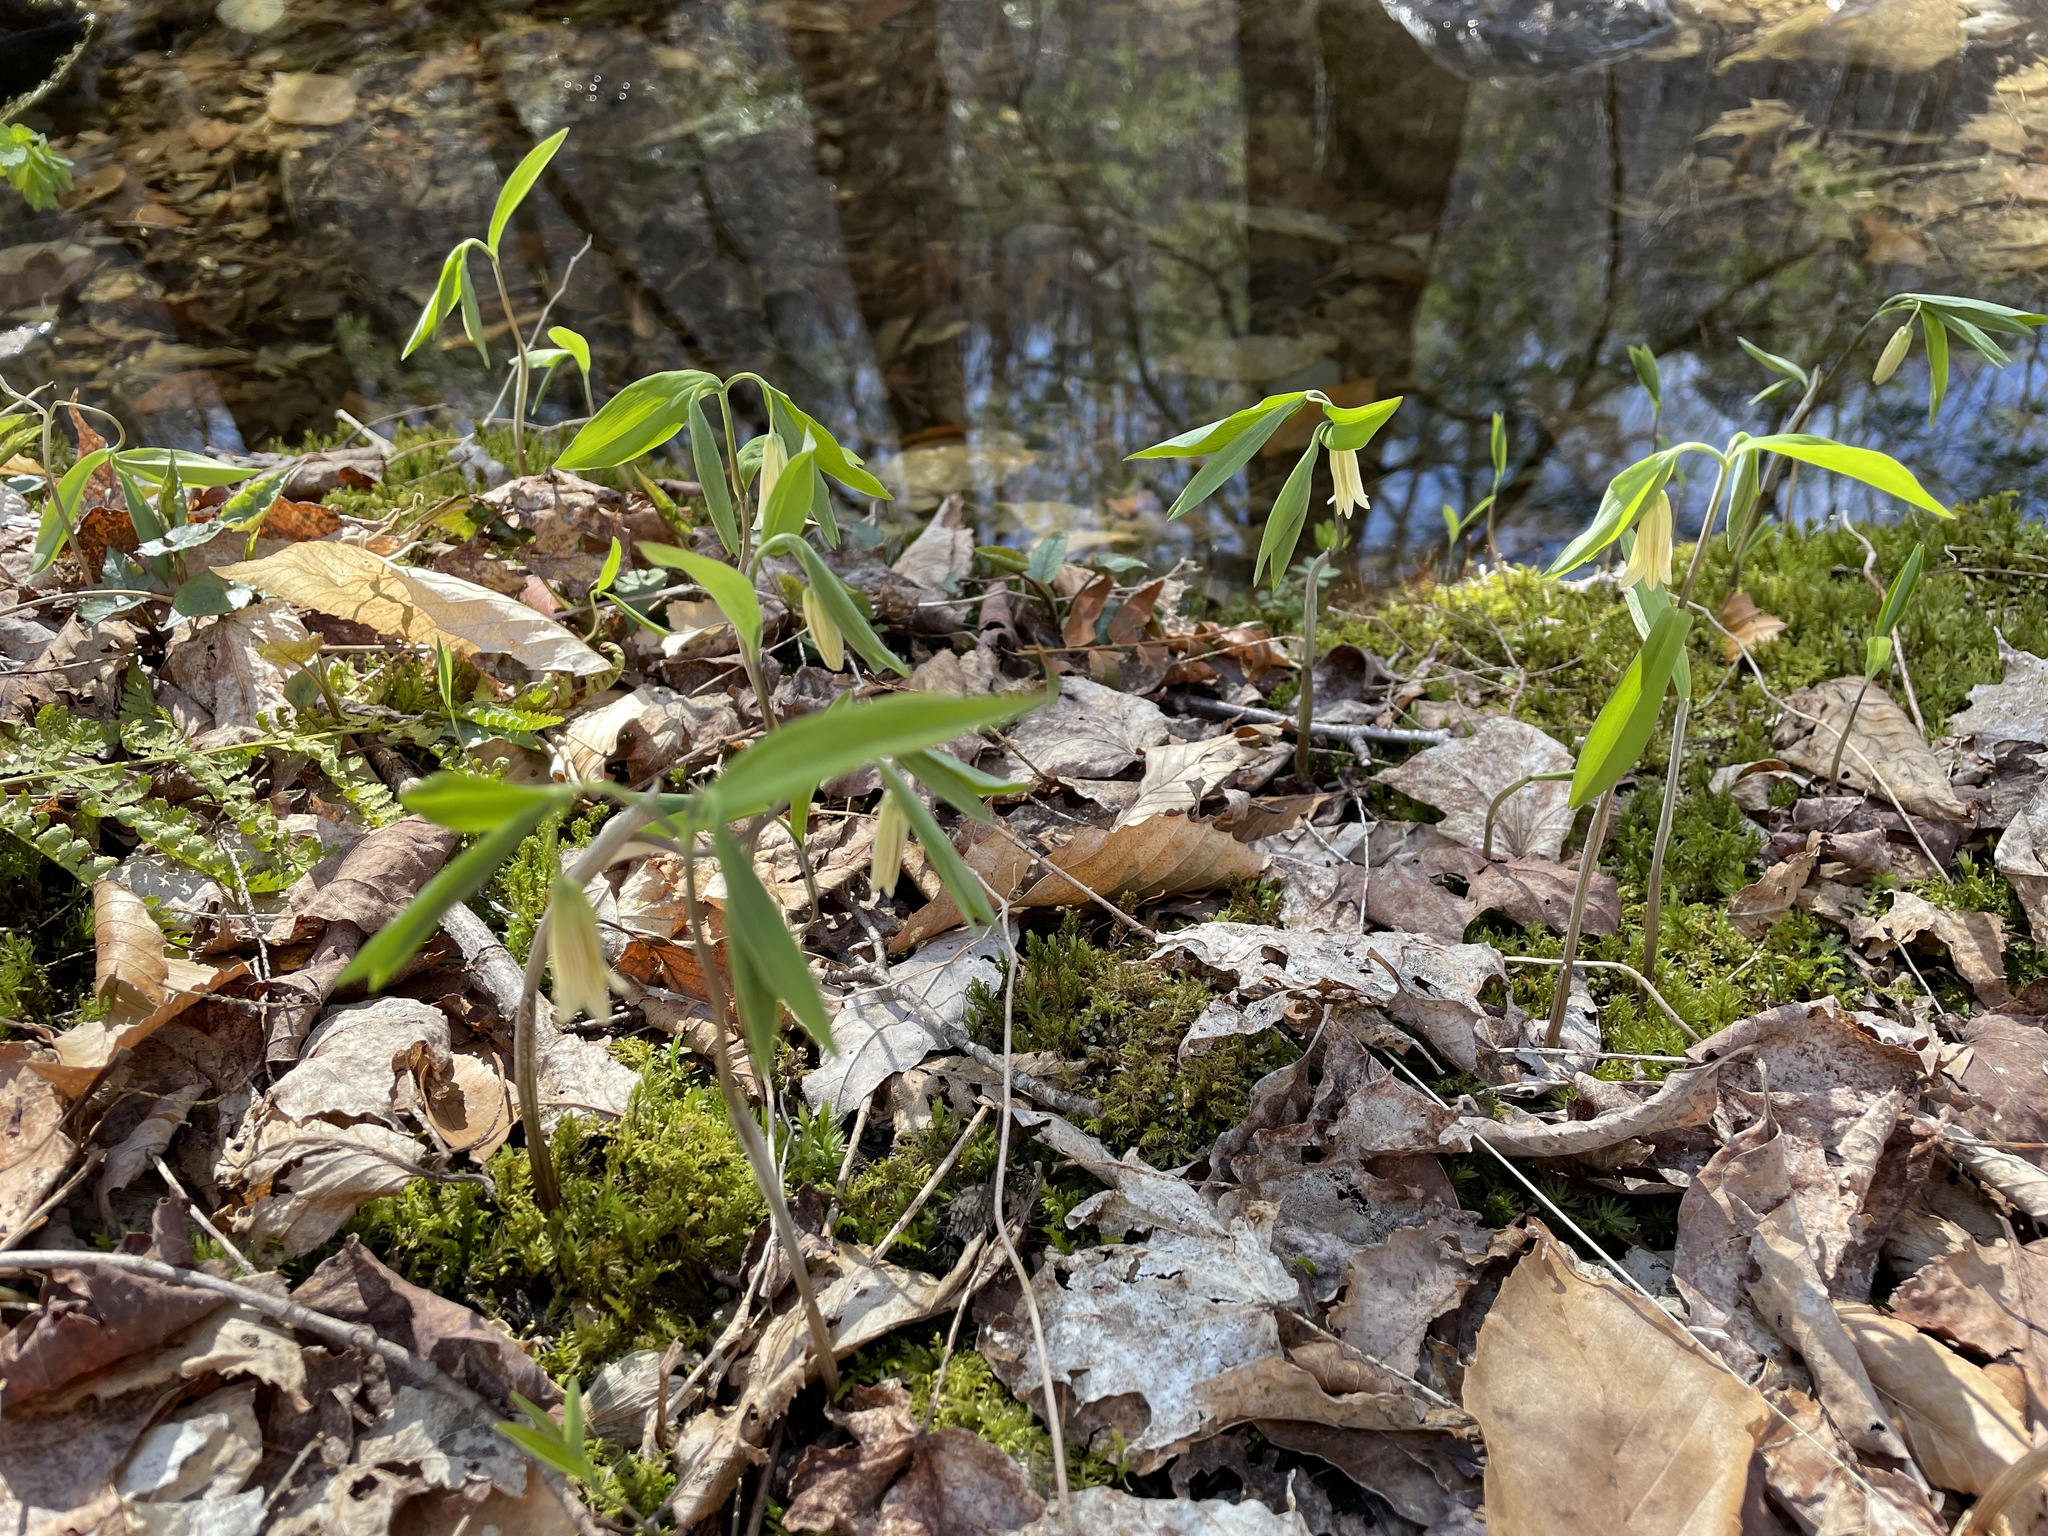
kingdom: Plantae
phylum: Tracheophyta
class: Liliopsida
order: Liliales
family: Colchicaceae
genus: Uvularia
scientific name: Uvularia sessilifolia
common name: Straw-lily
